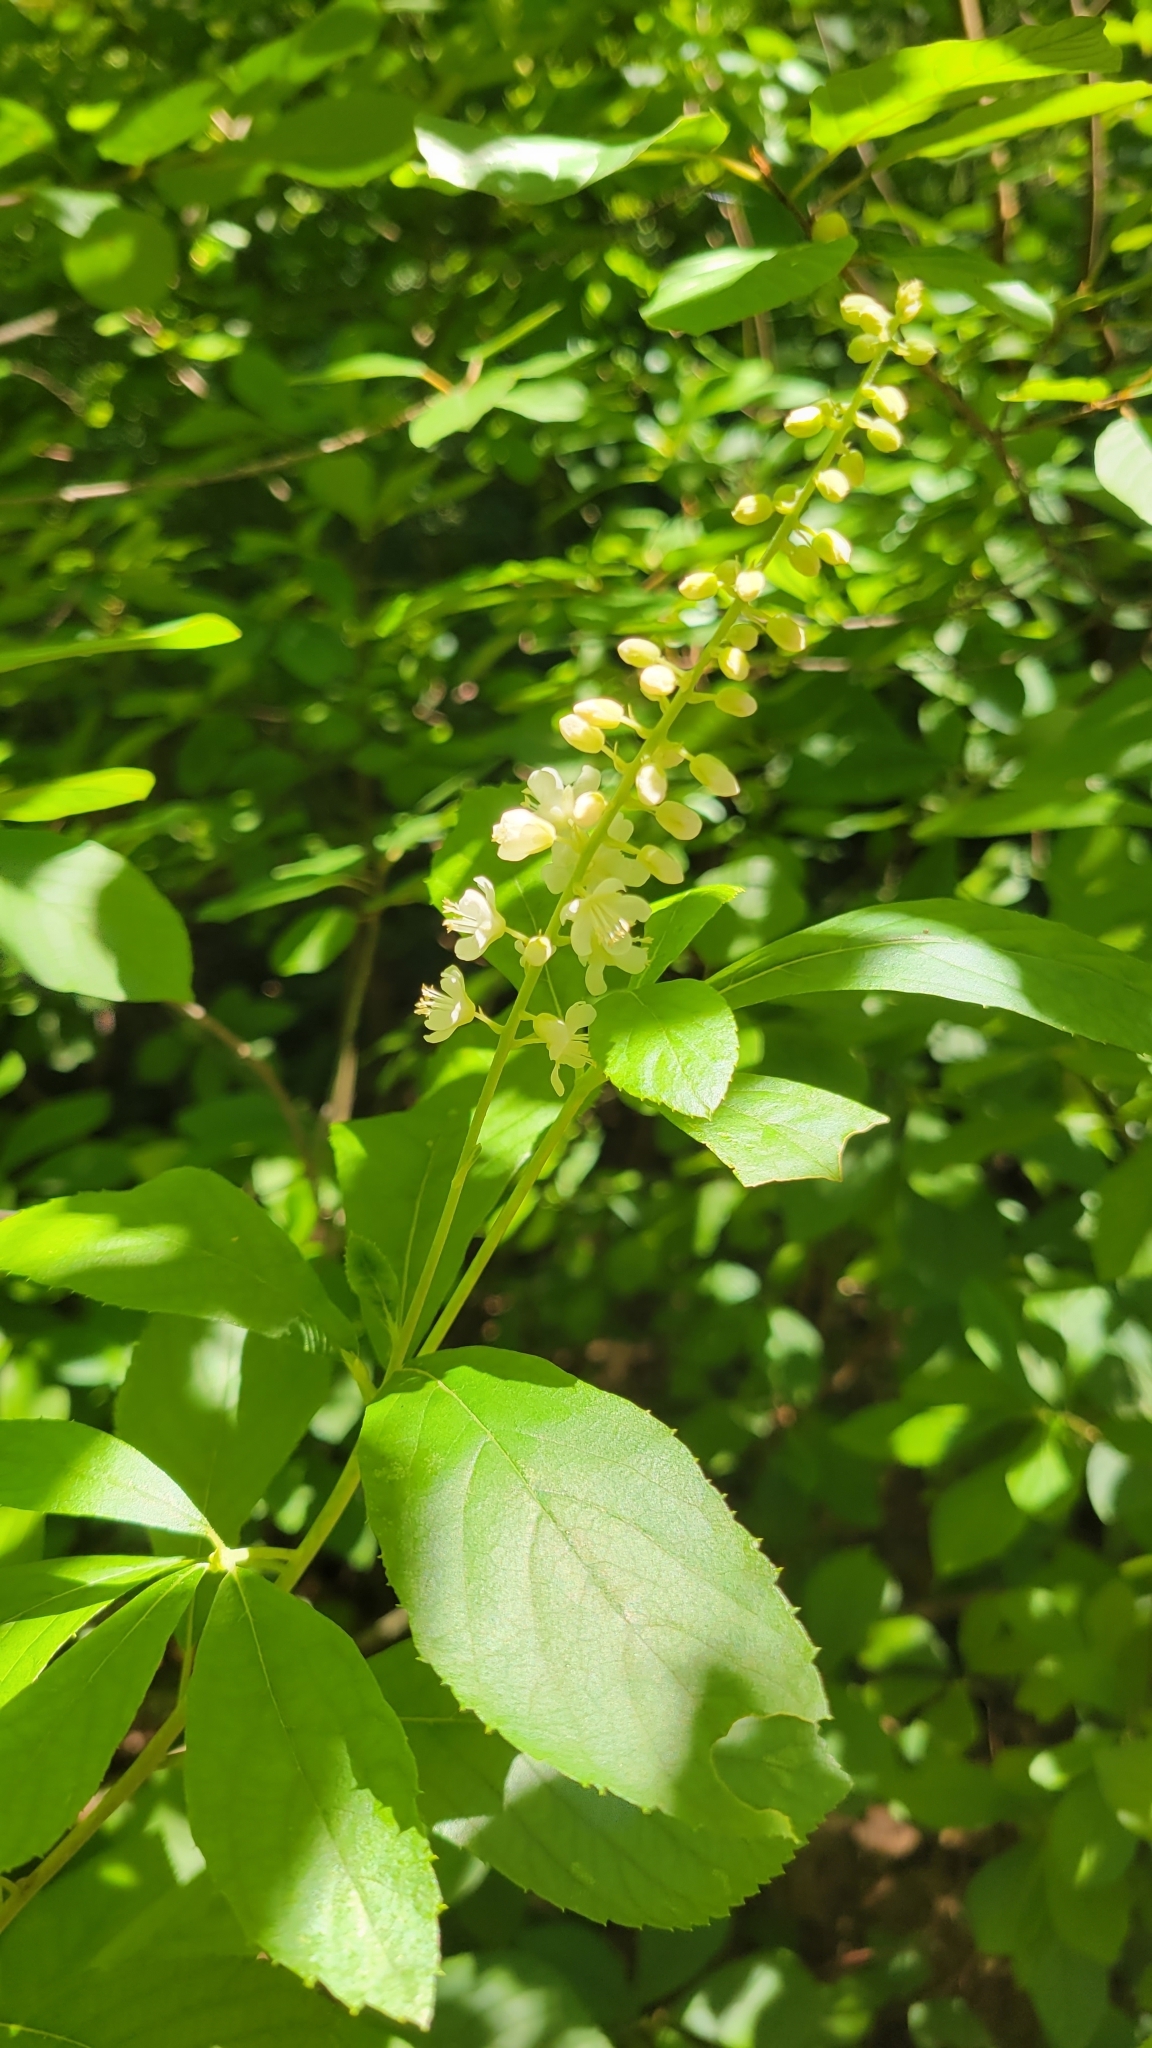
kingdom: Plantae
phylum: Tracheophyta
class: Magnoliopsida
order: Ericales
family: Clethraceae
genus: Clethra
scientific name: Clethra alnifolia
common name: Sweet pepperbush
